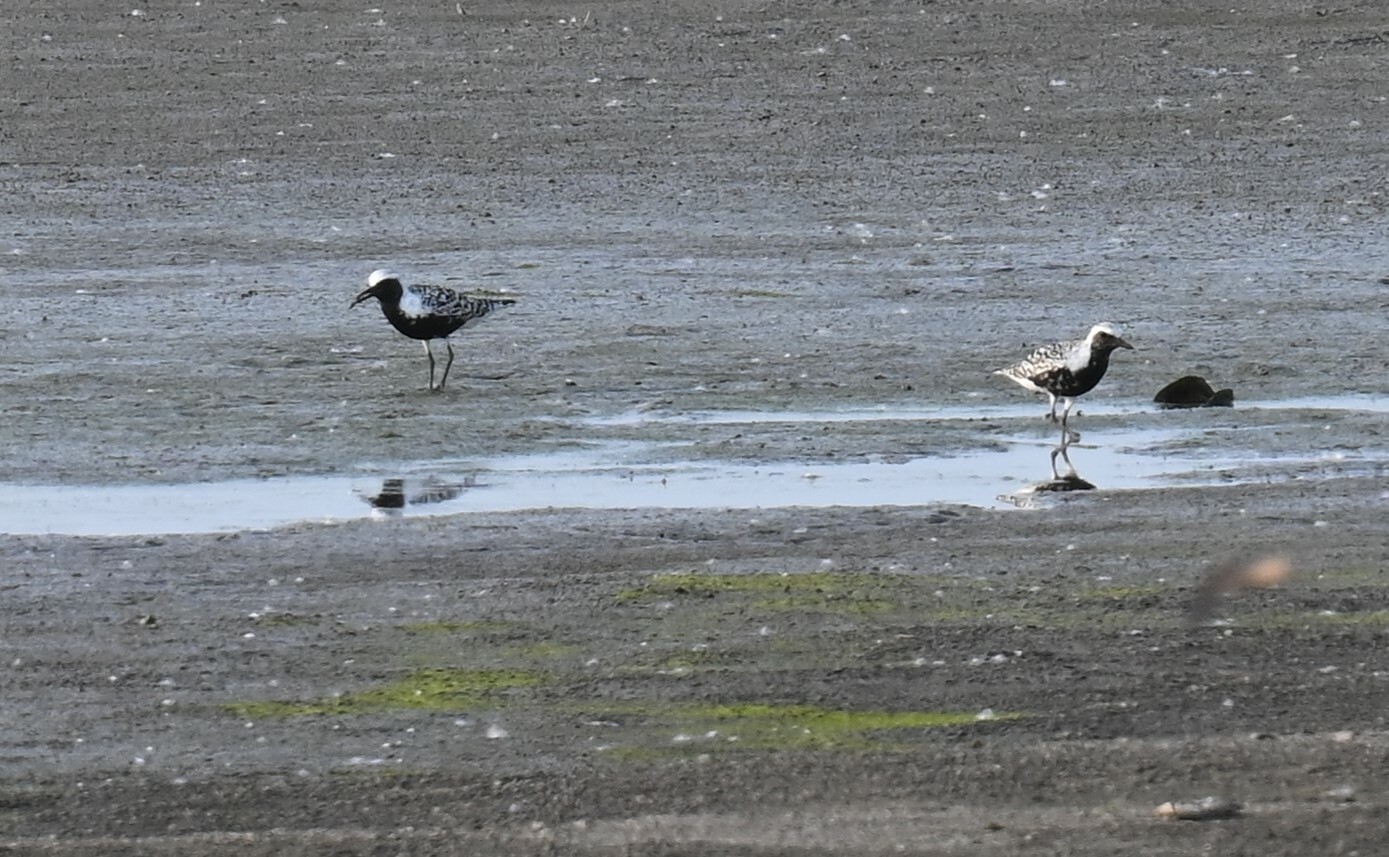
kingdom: Animalia
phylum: Chordata
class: Aves
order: Charadriiformes
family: Charadriidae
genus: Pluvialis
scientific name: Pluvialis squatarola
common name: Grey plover
